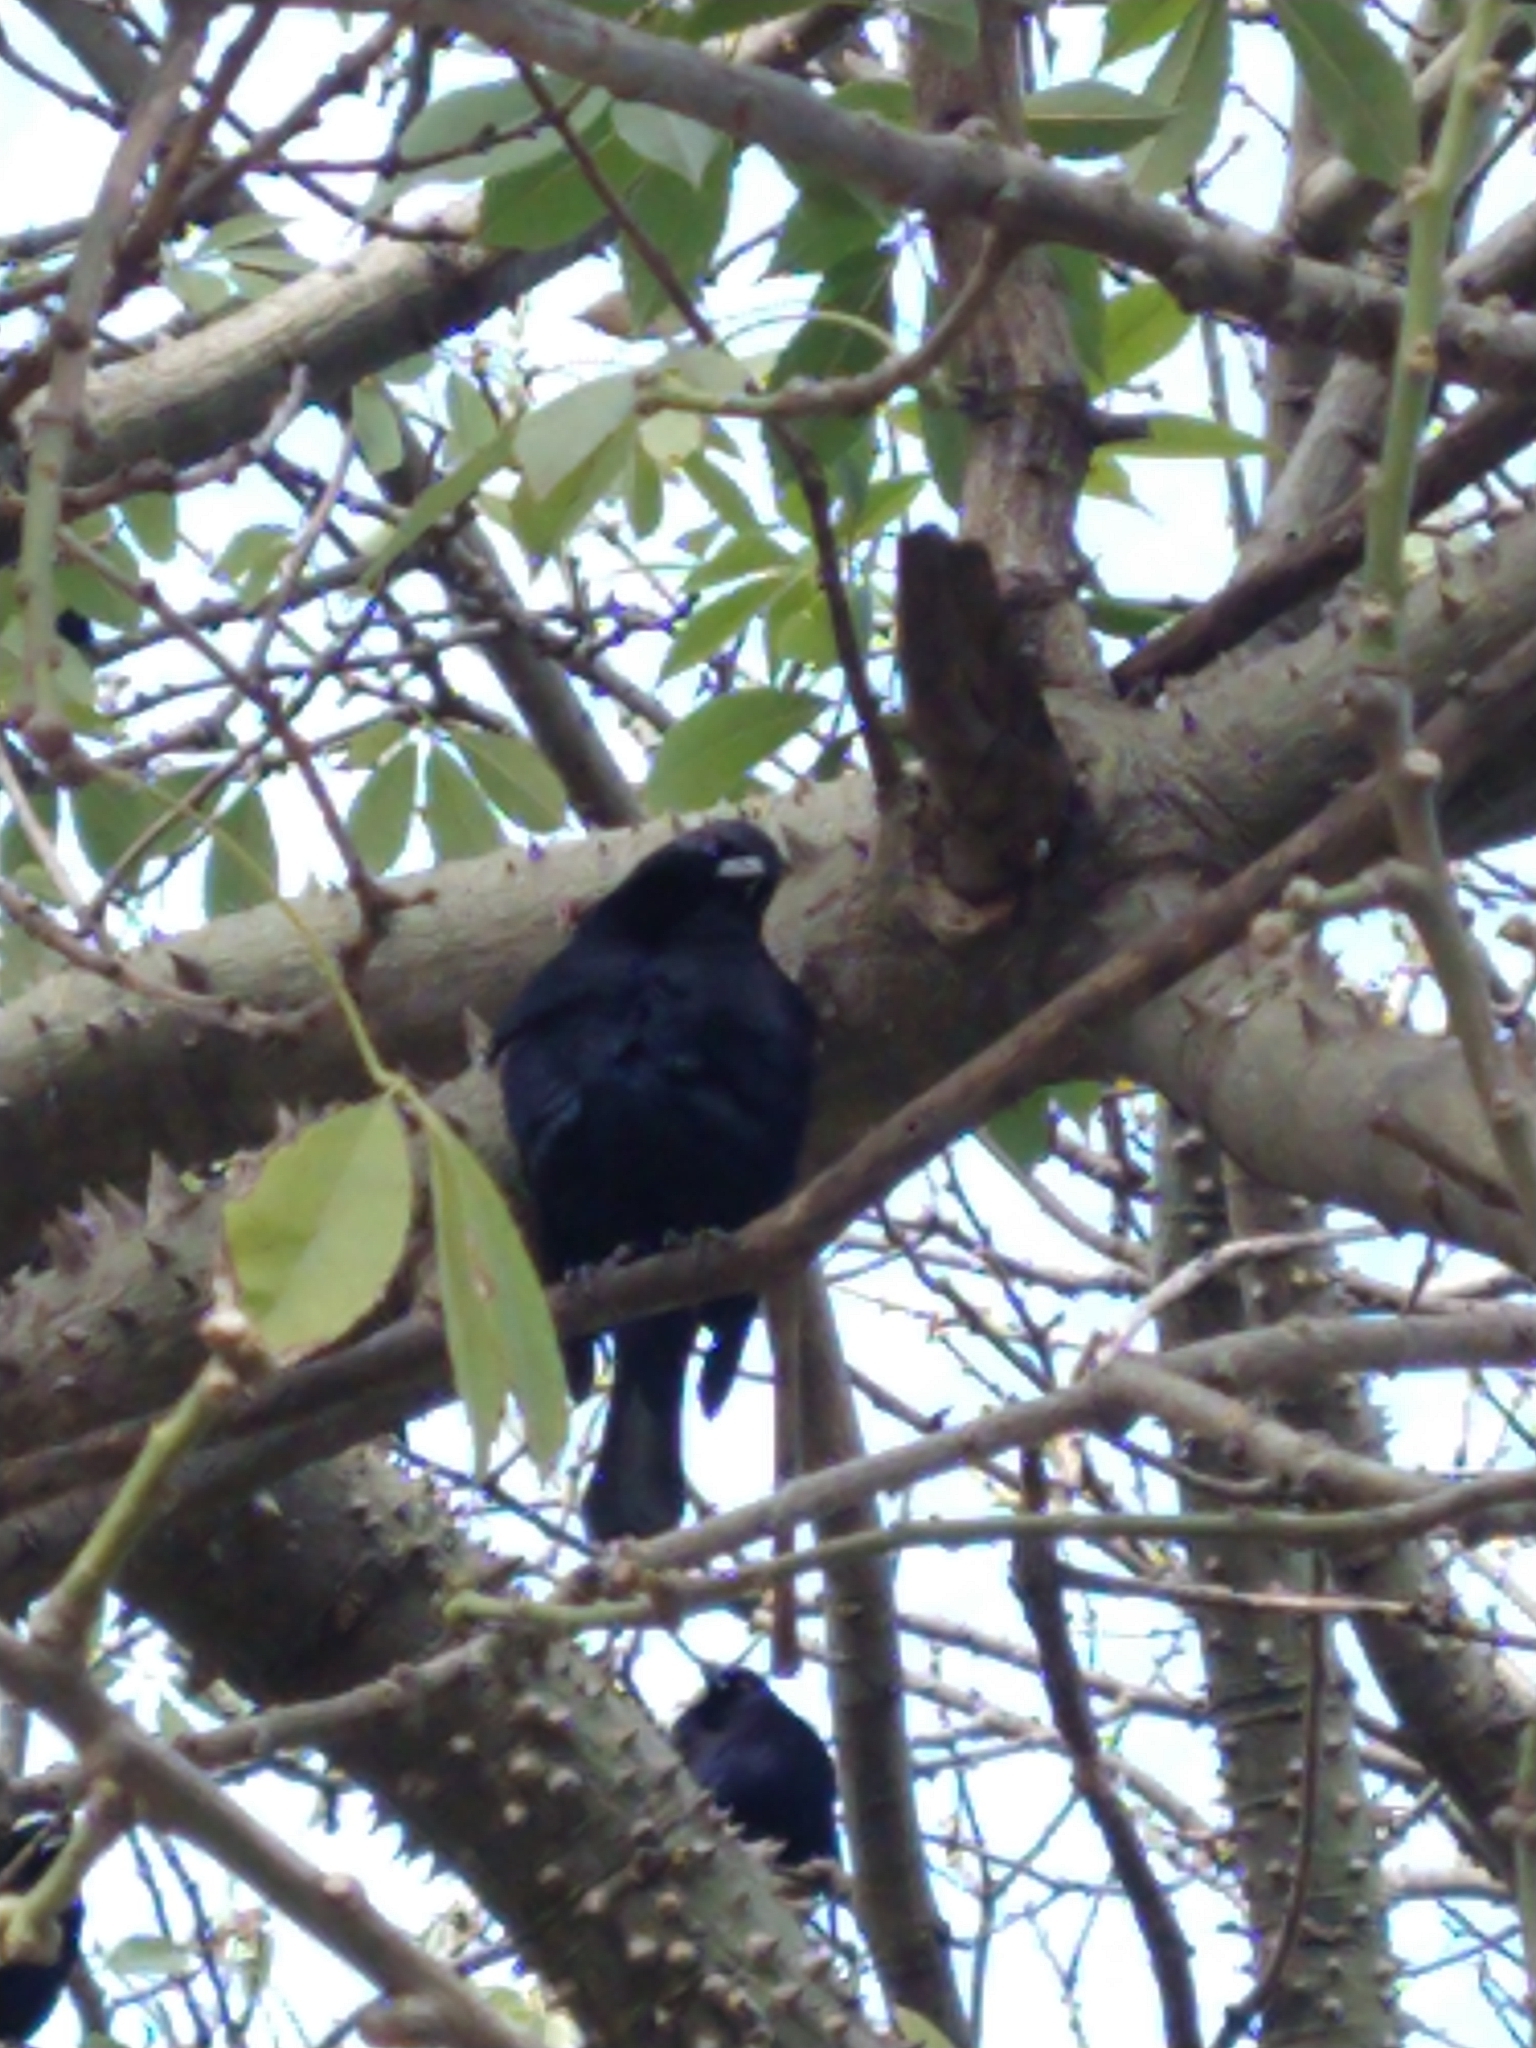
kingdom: Animalia
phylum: Chordata
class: Aves
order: Passeriformes
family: Icteridae
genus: Molothrus
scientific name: Molothrus bonariensis
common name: Shiny cowbird
